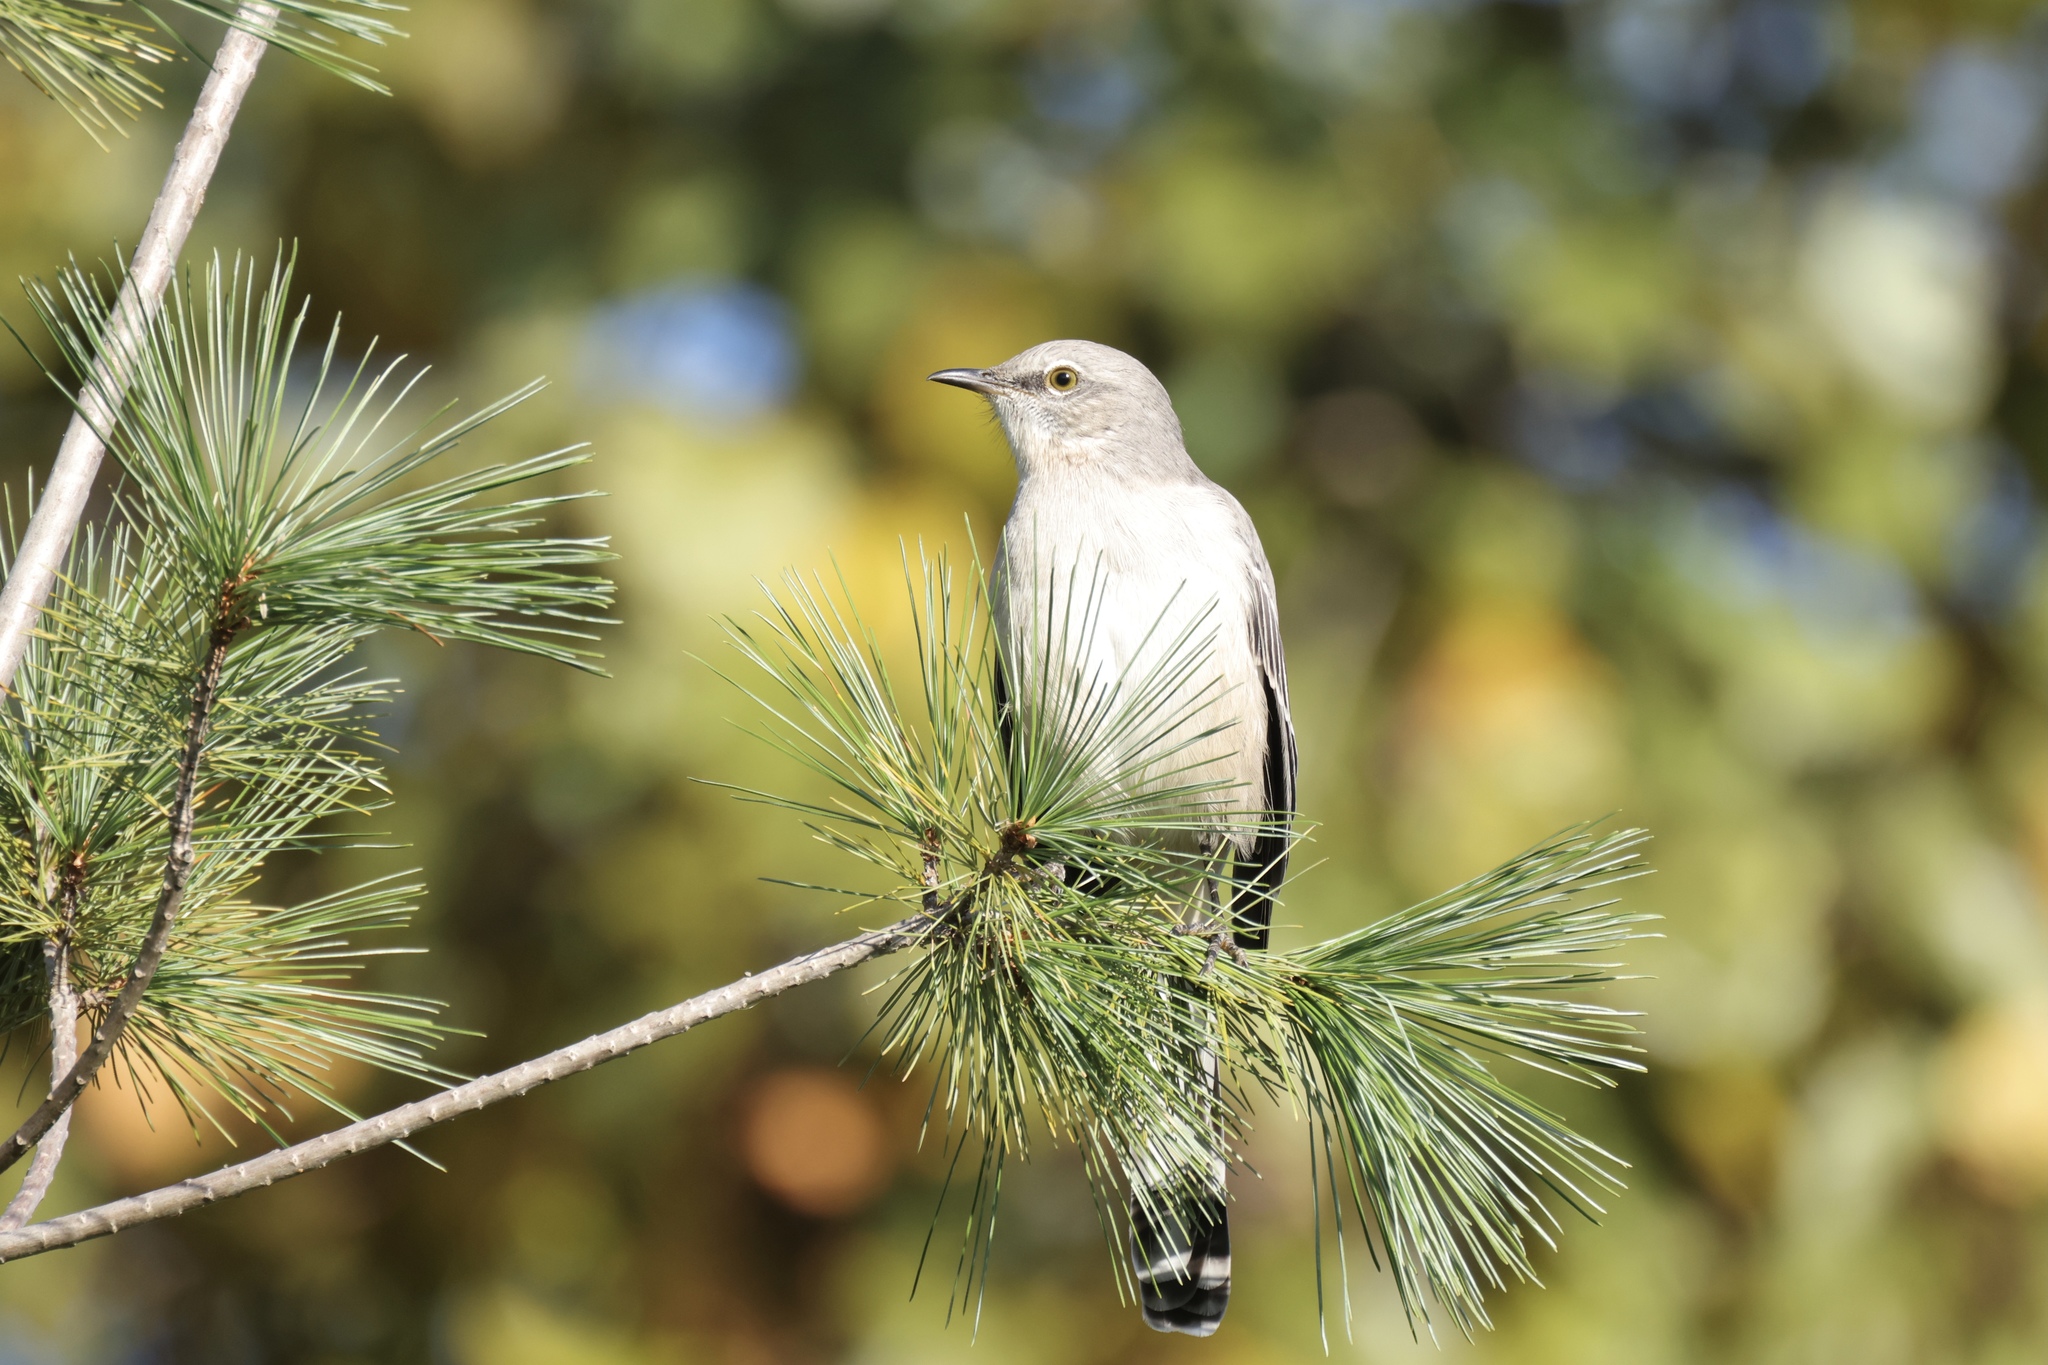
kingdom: Animalia
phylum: Chordata
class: Aves
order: Passeriformes
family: Mimidae
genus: Mimus
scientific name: Mimus polyglottos
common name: Northern mockingbird
